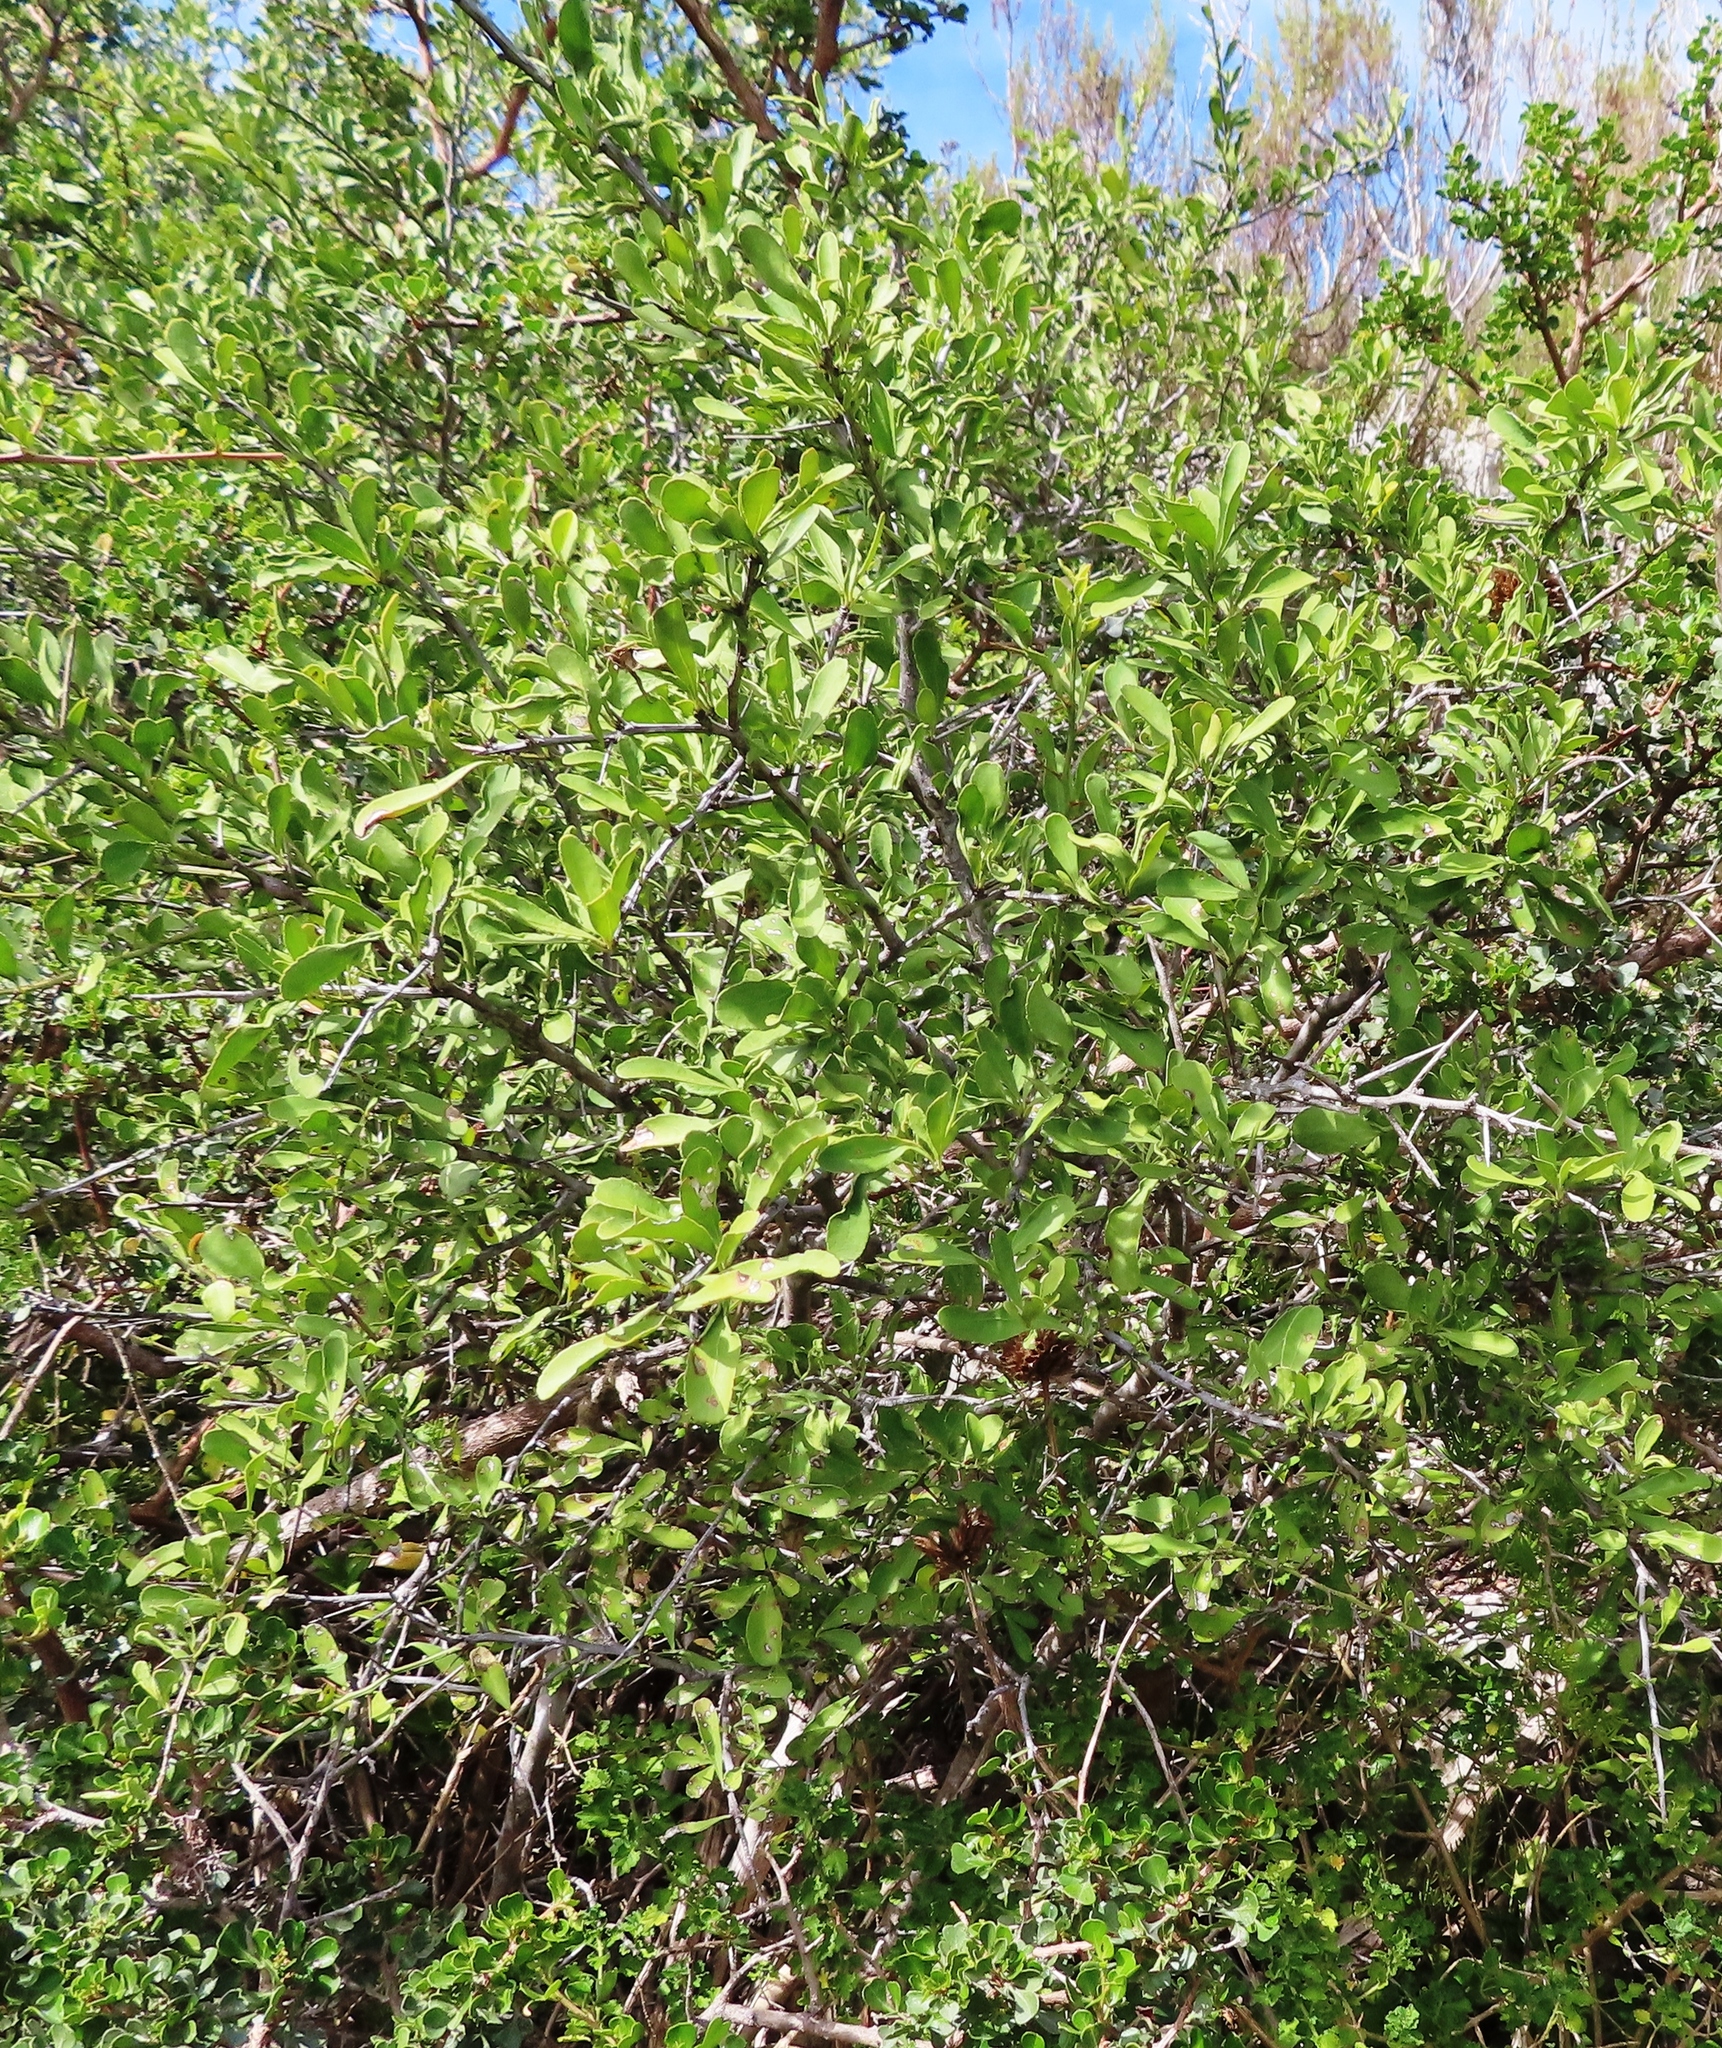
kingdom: Plantae
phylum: Tracheophyta
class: Magnoliopsida
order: Celastrales
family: Celastraceae
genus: Gymnosporia
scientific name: Gymnosporia buxifolia
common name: Common spike-thorn
